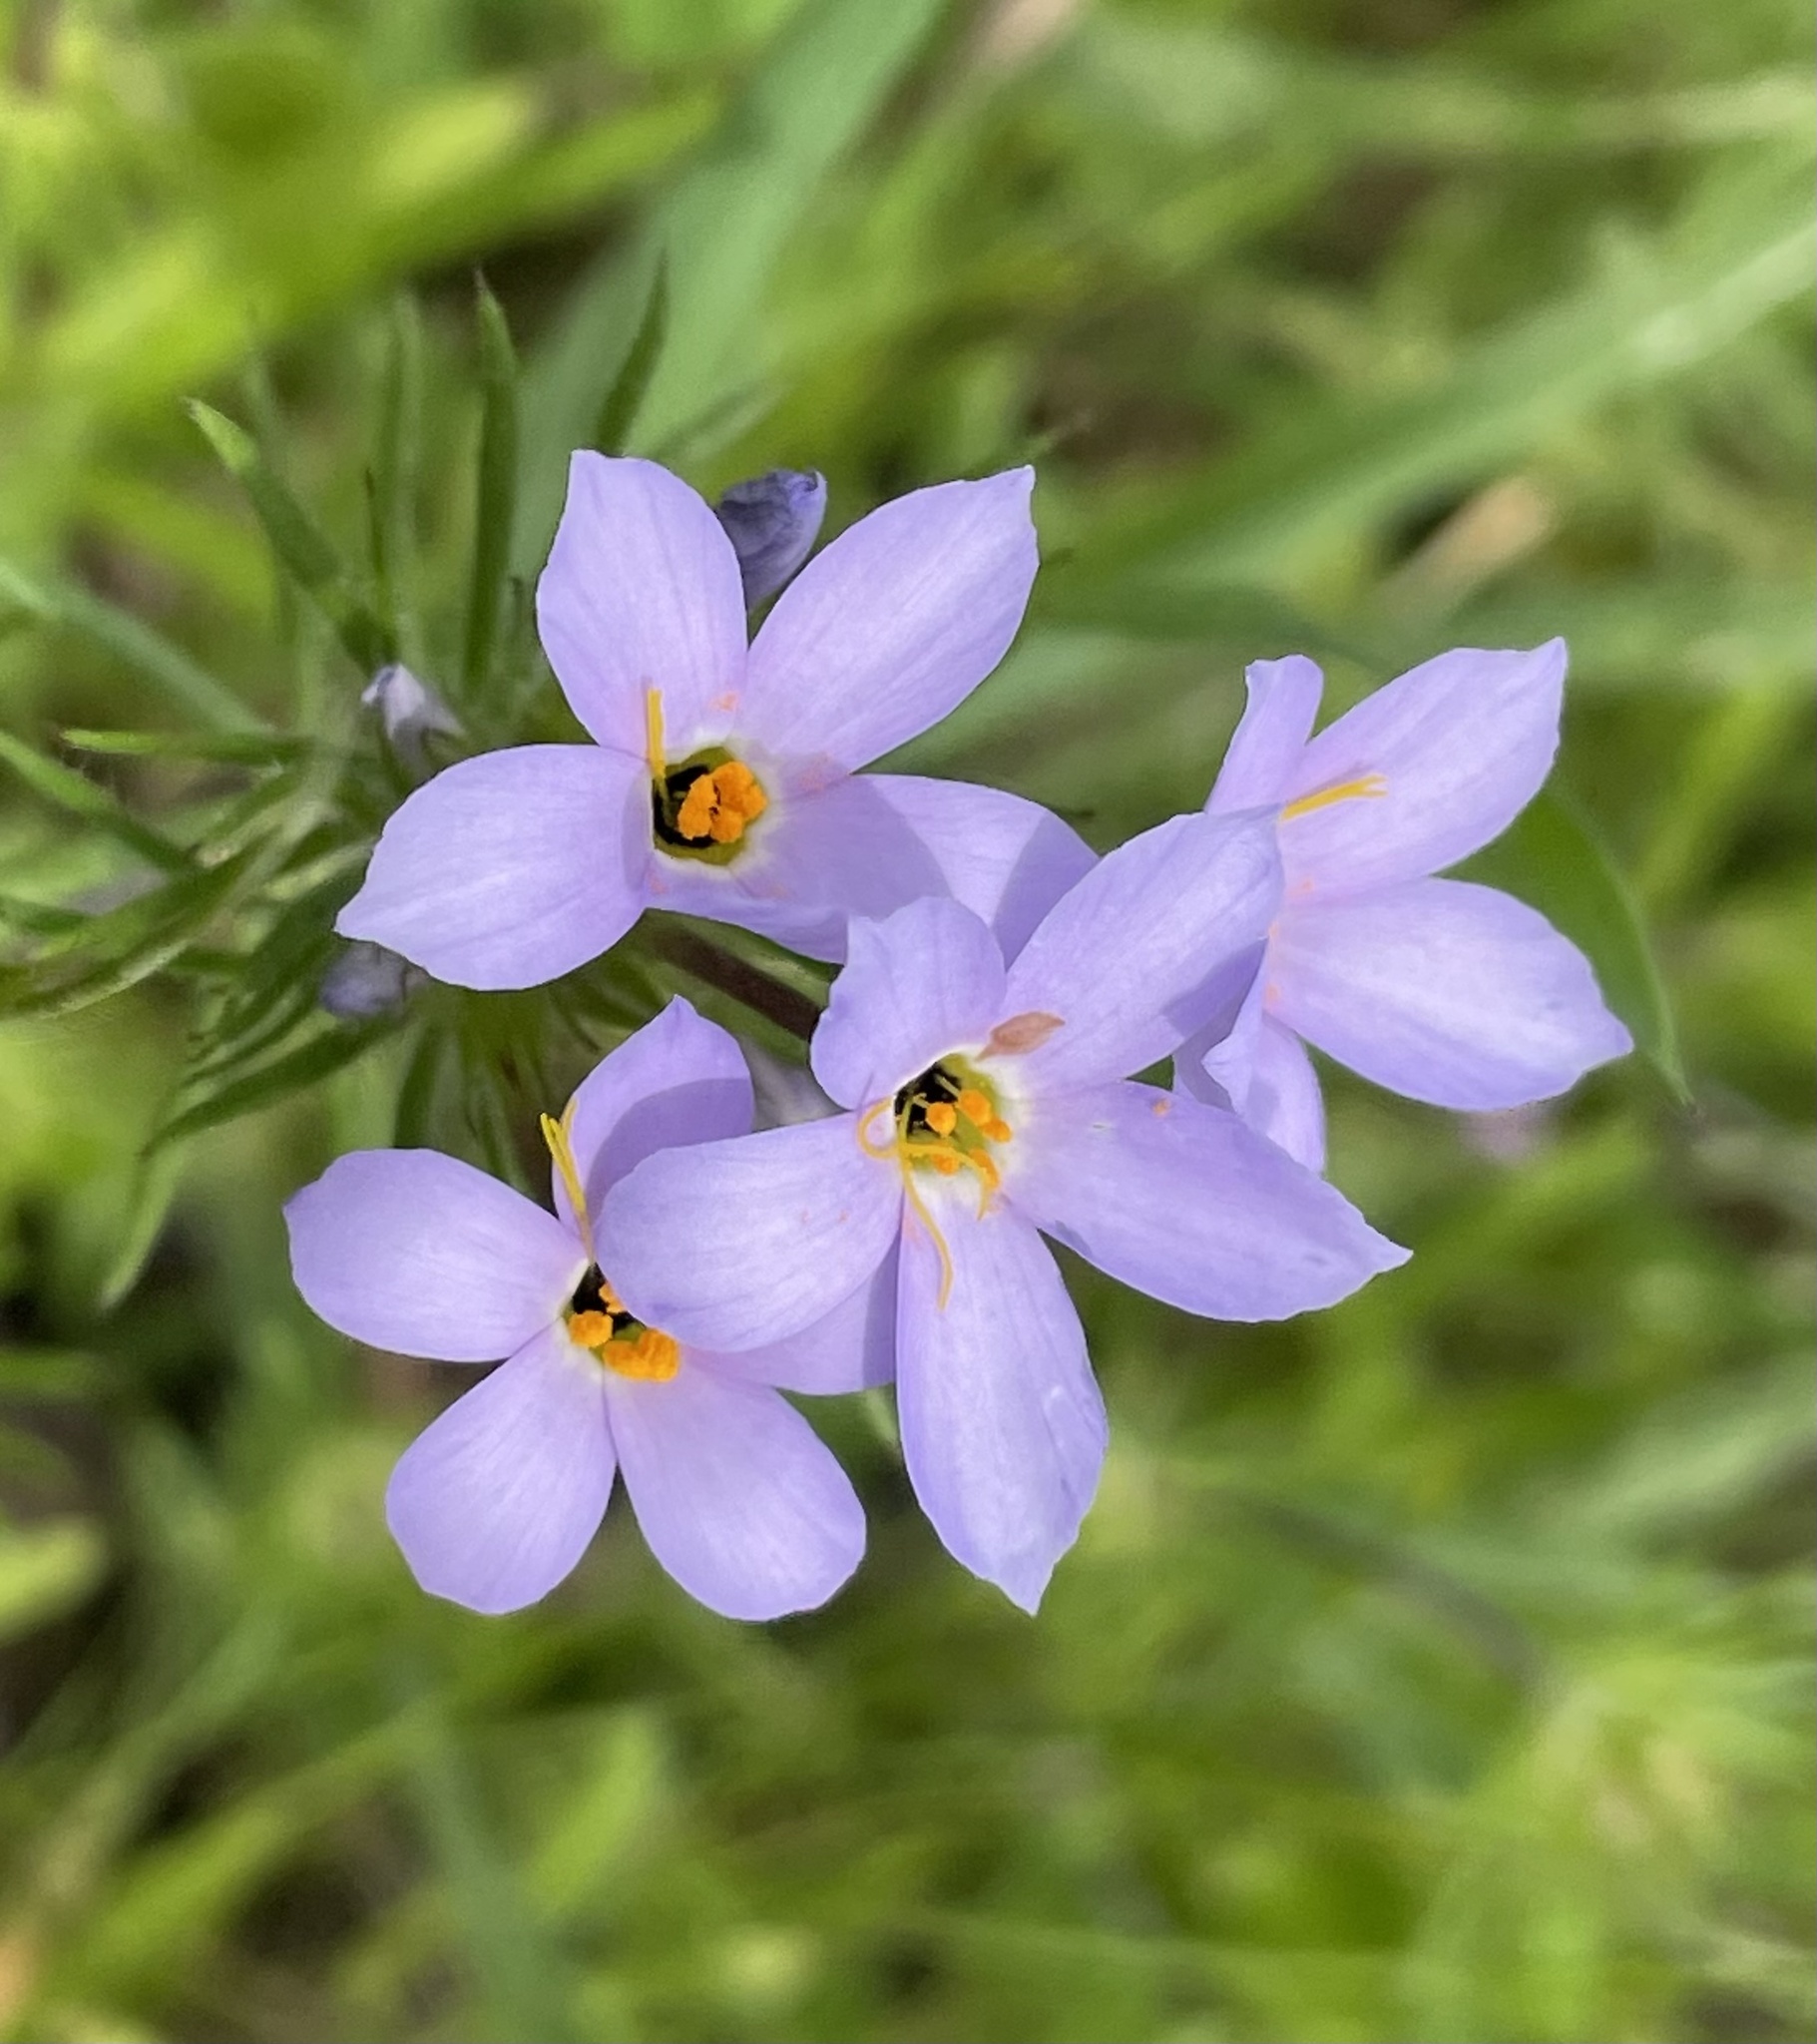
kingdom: Plantae
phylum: Tracheophyta
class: Magnoliopsida
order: Ericales
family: Polemoniaceae
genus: Leptosiphon
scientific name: Leptosiphon androsaceus
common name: False babystars
